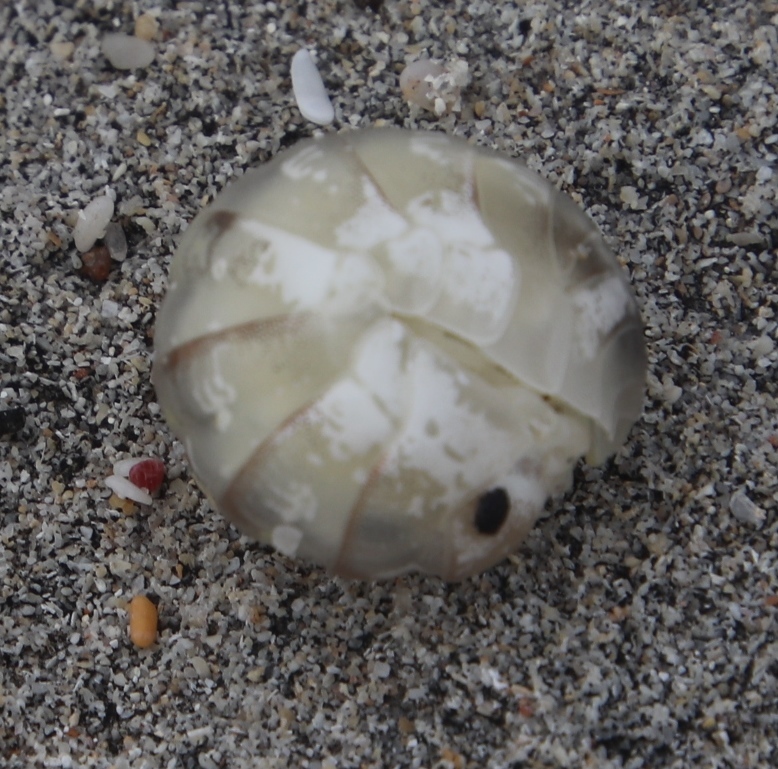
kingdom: Animalia
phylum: Arthropoda
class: Malacostraca
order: Isopoda
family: Tylidae
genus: Tylos
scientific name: Tylos capensis
